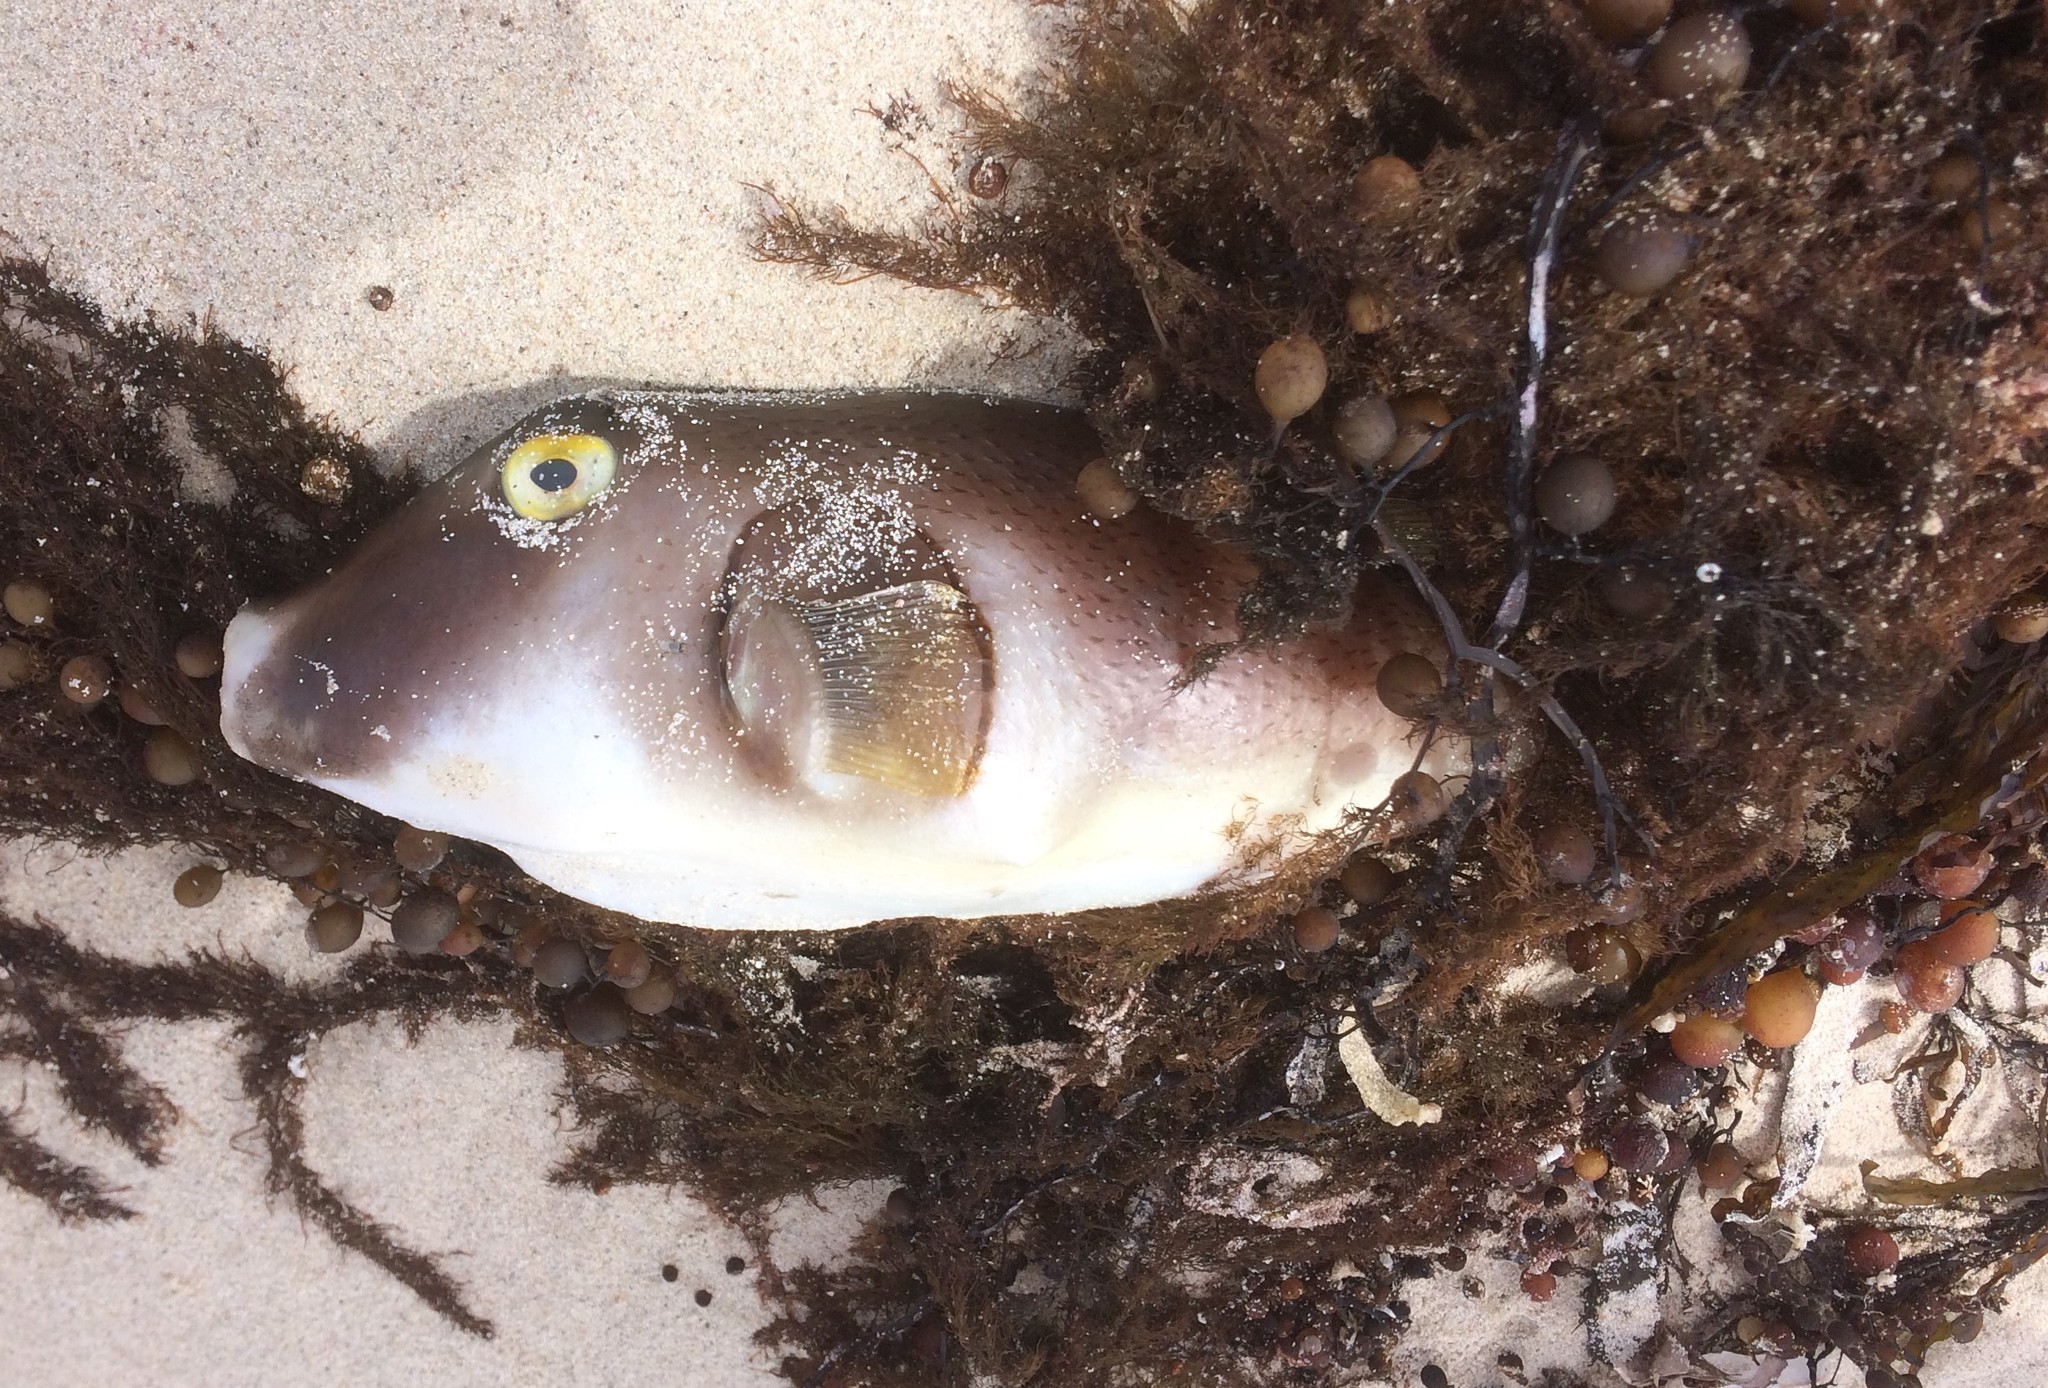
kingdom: Animalia
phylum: Chordata
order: Tetraodontiformes
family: Tetraodontidae
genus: Omegophora
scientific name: Omegophora armilla
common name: Ringed pufferfish
